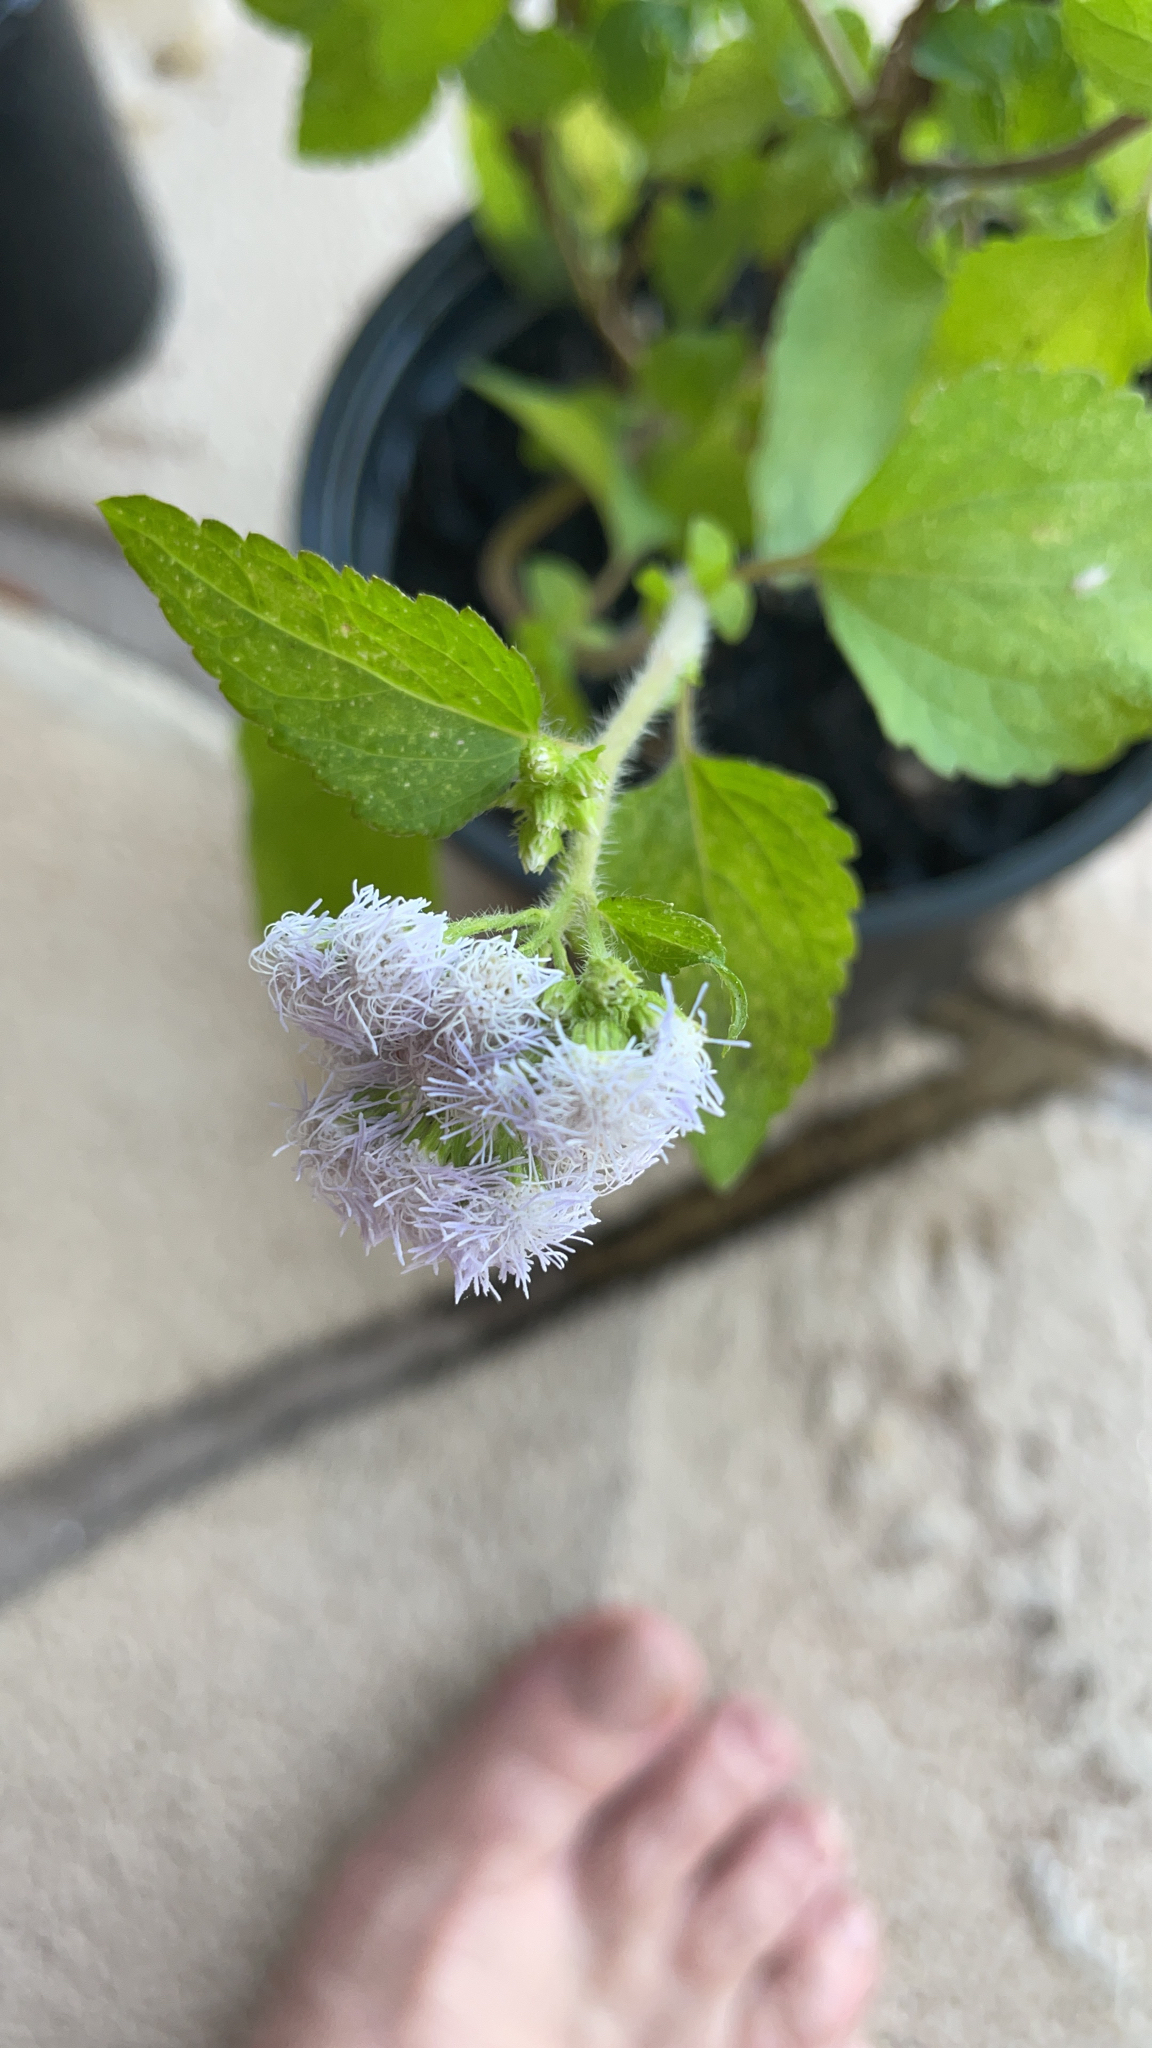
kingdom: Plantae
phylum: Tracheophyta
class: Magnoliopsida
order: Asterales
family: Asteraceae
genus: Ageratum
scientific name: Ageratum houstonianum
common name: Bluemink
